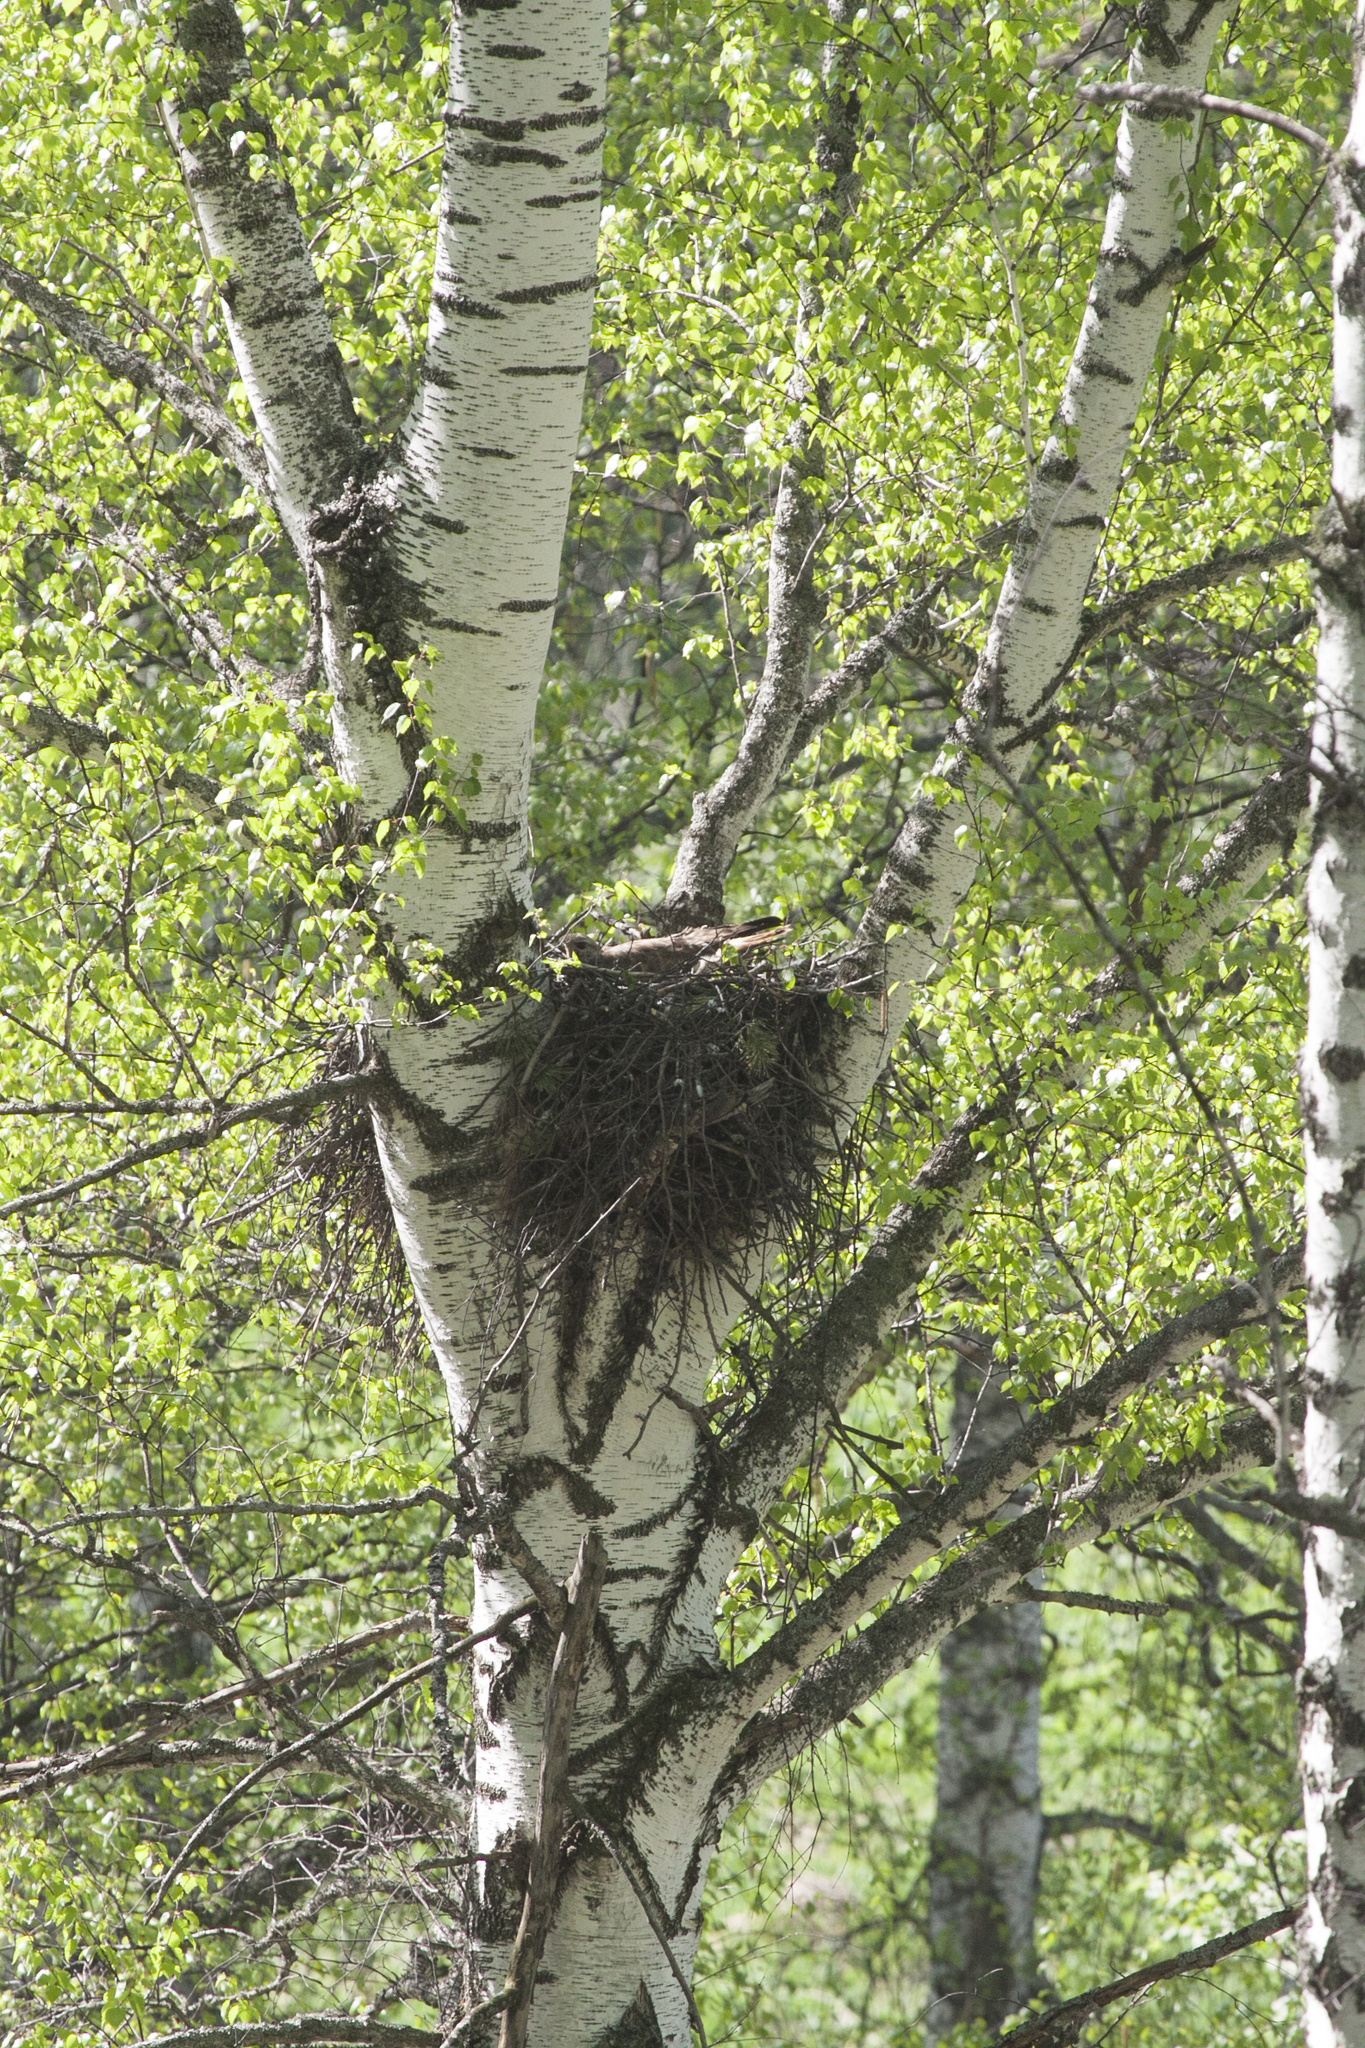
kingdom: Animalia
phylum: Chordata
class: Aves
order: Accipitriformes
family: Accipitridae
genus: Buteo
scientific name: Buteo buteo
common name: Common buzzard
